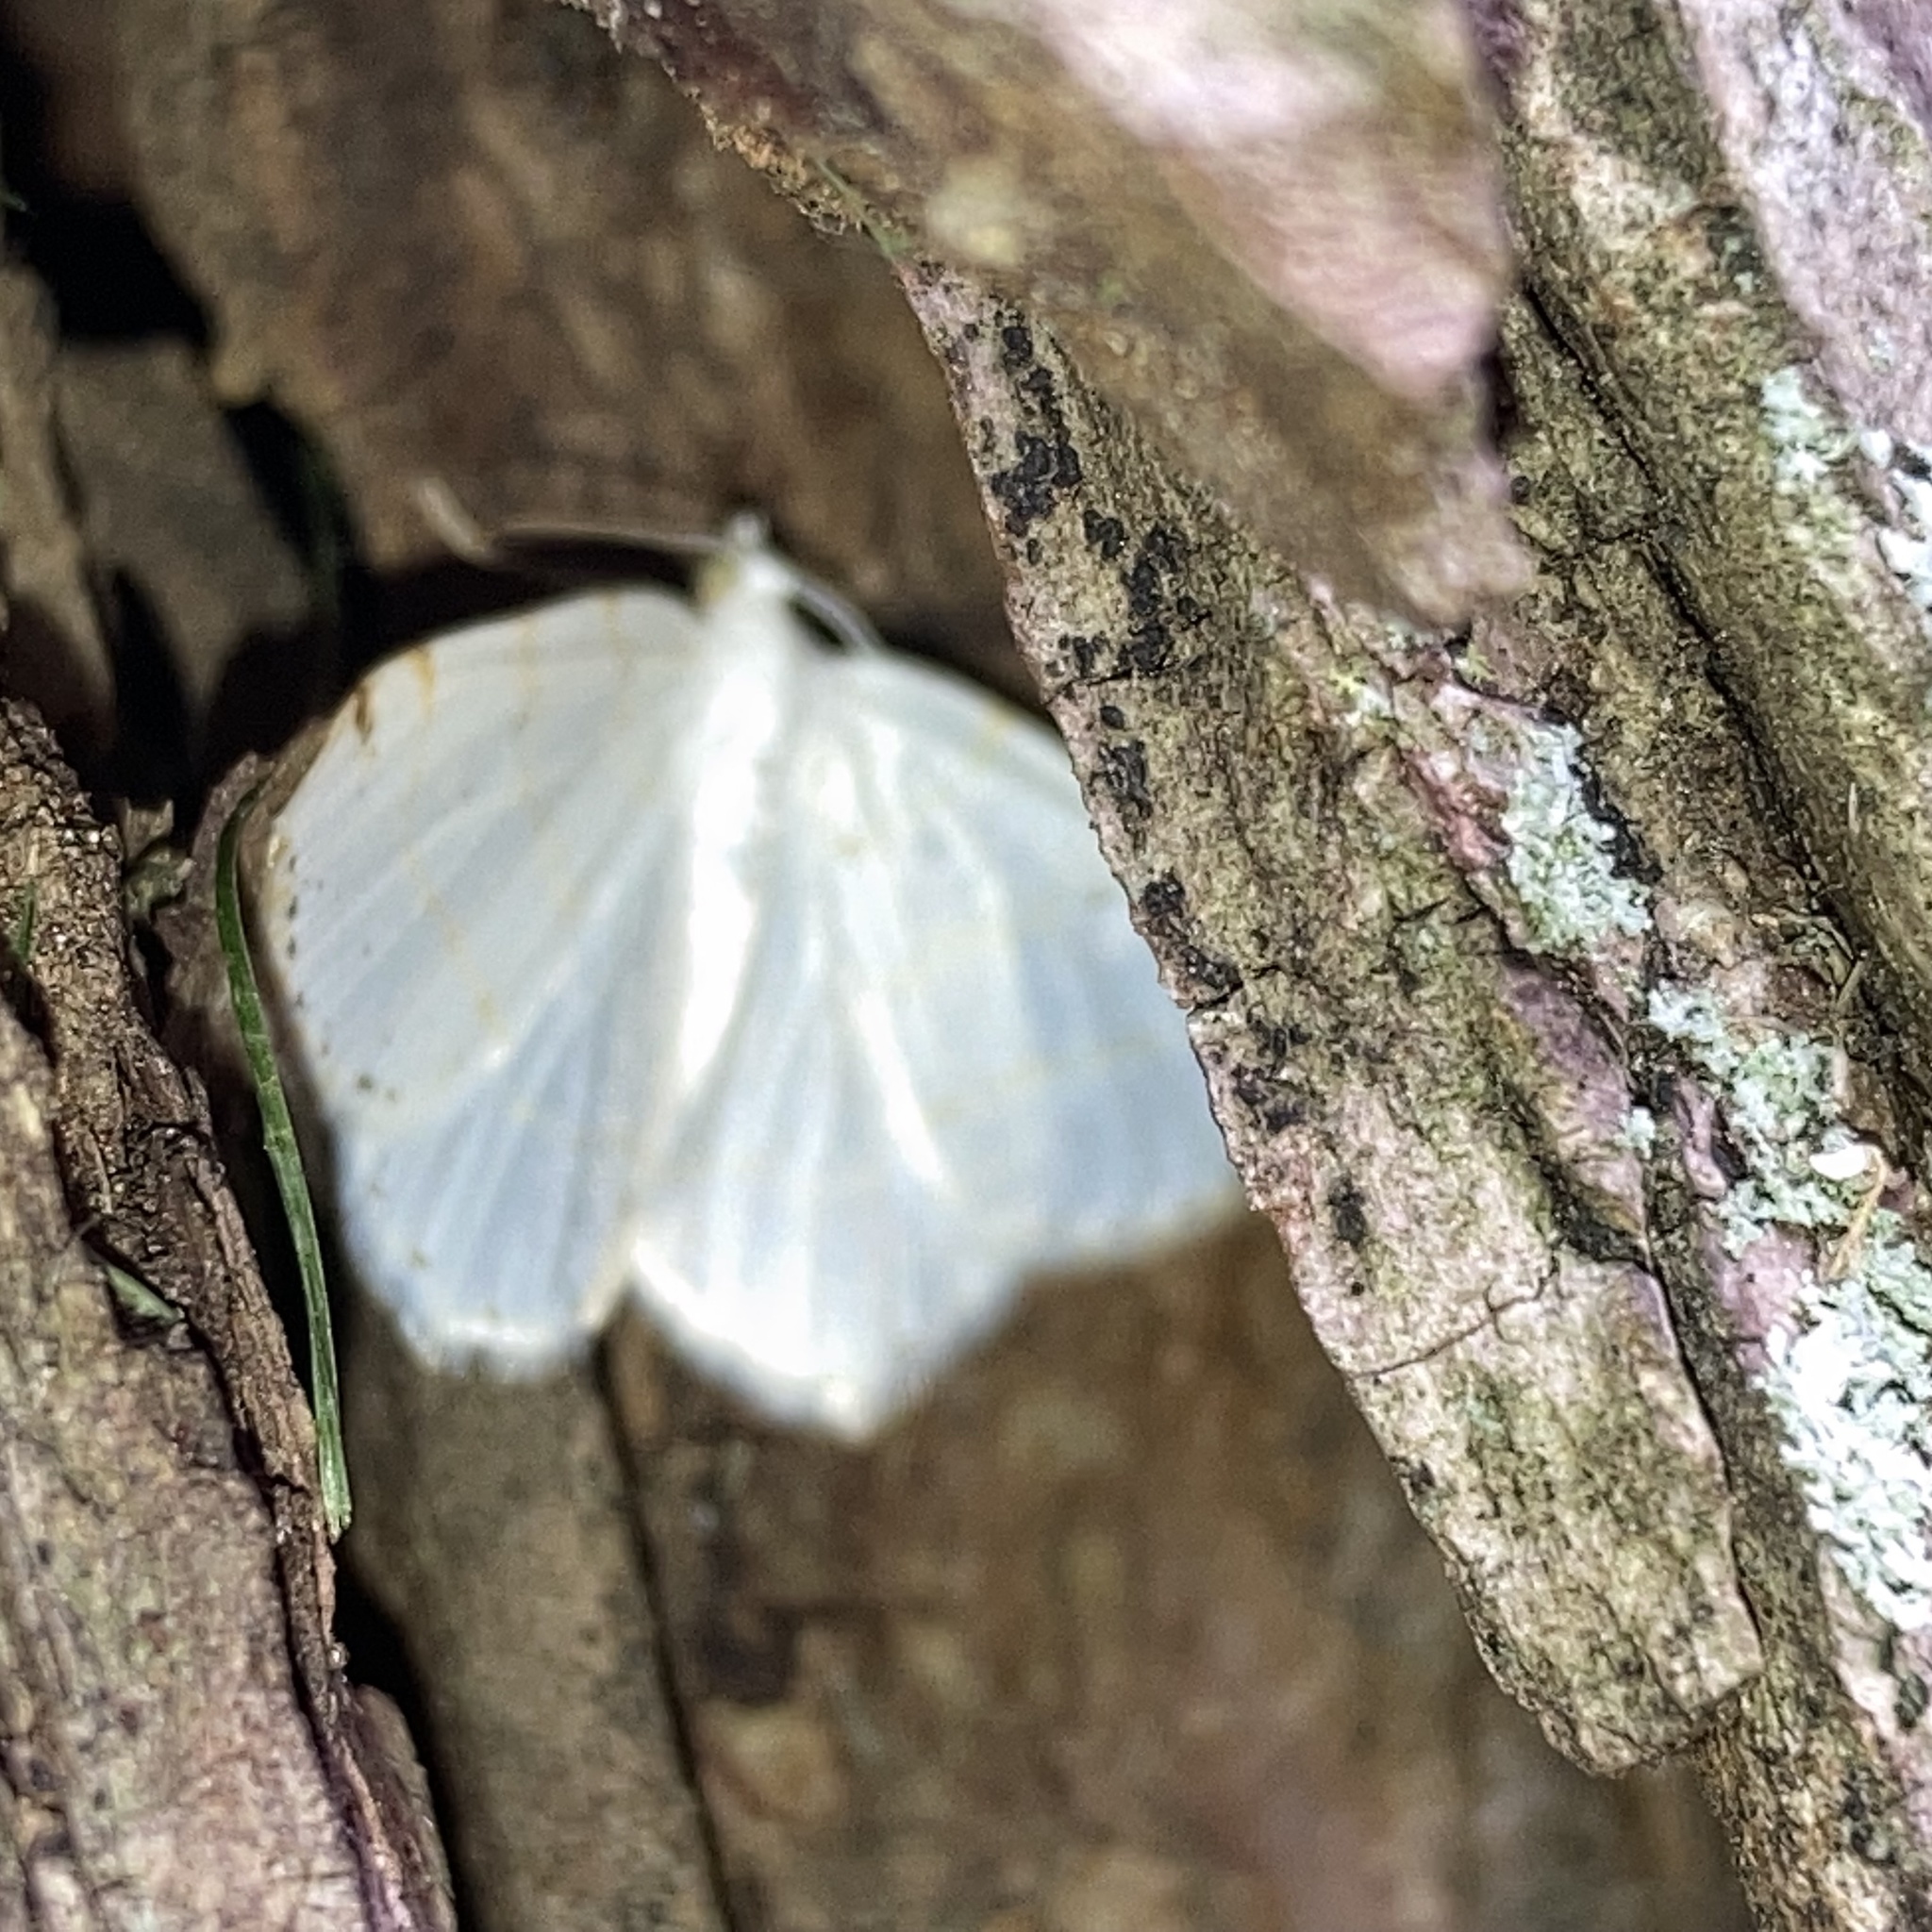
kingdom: Animalia
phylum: Arthropoda
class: Insecta
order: Lepidoptera
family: Geometridae
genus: Macaria
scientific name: Macaria pustularia
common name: Lesser maple spanworm moth
